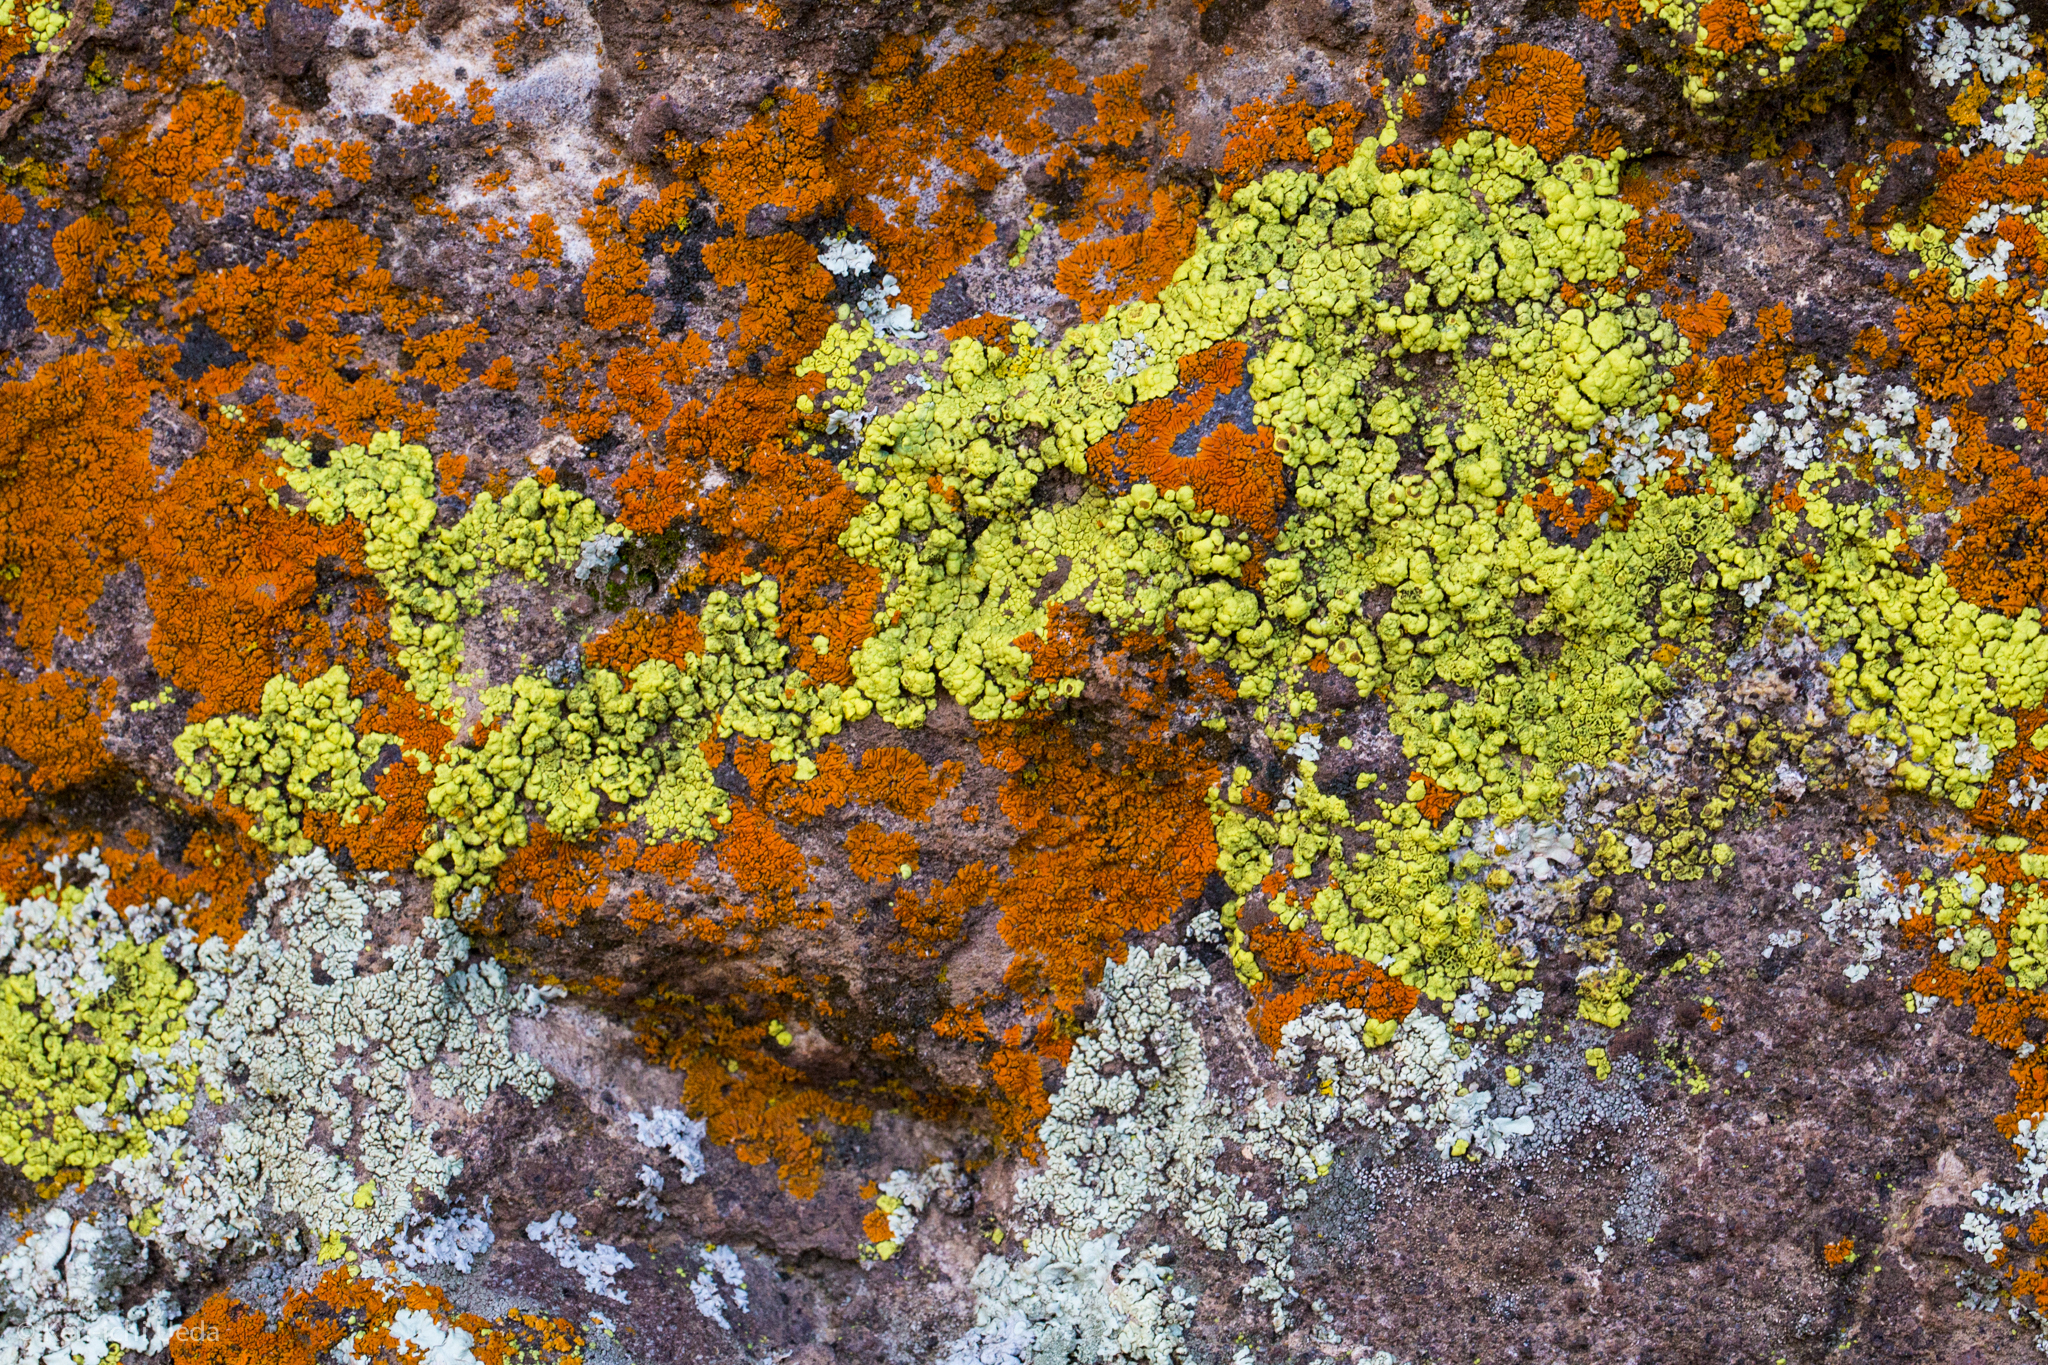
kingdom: Fungi
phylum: Ascomycota
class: Lecanoromycetes
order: Acarosporales
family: Acarosporaceae
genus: Acarospora
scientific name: Acarospora socialis
